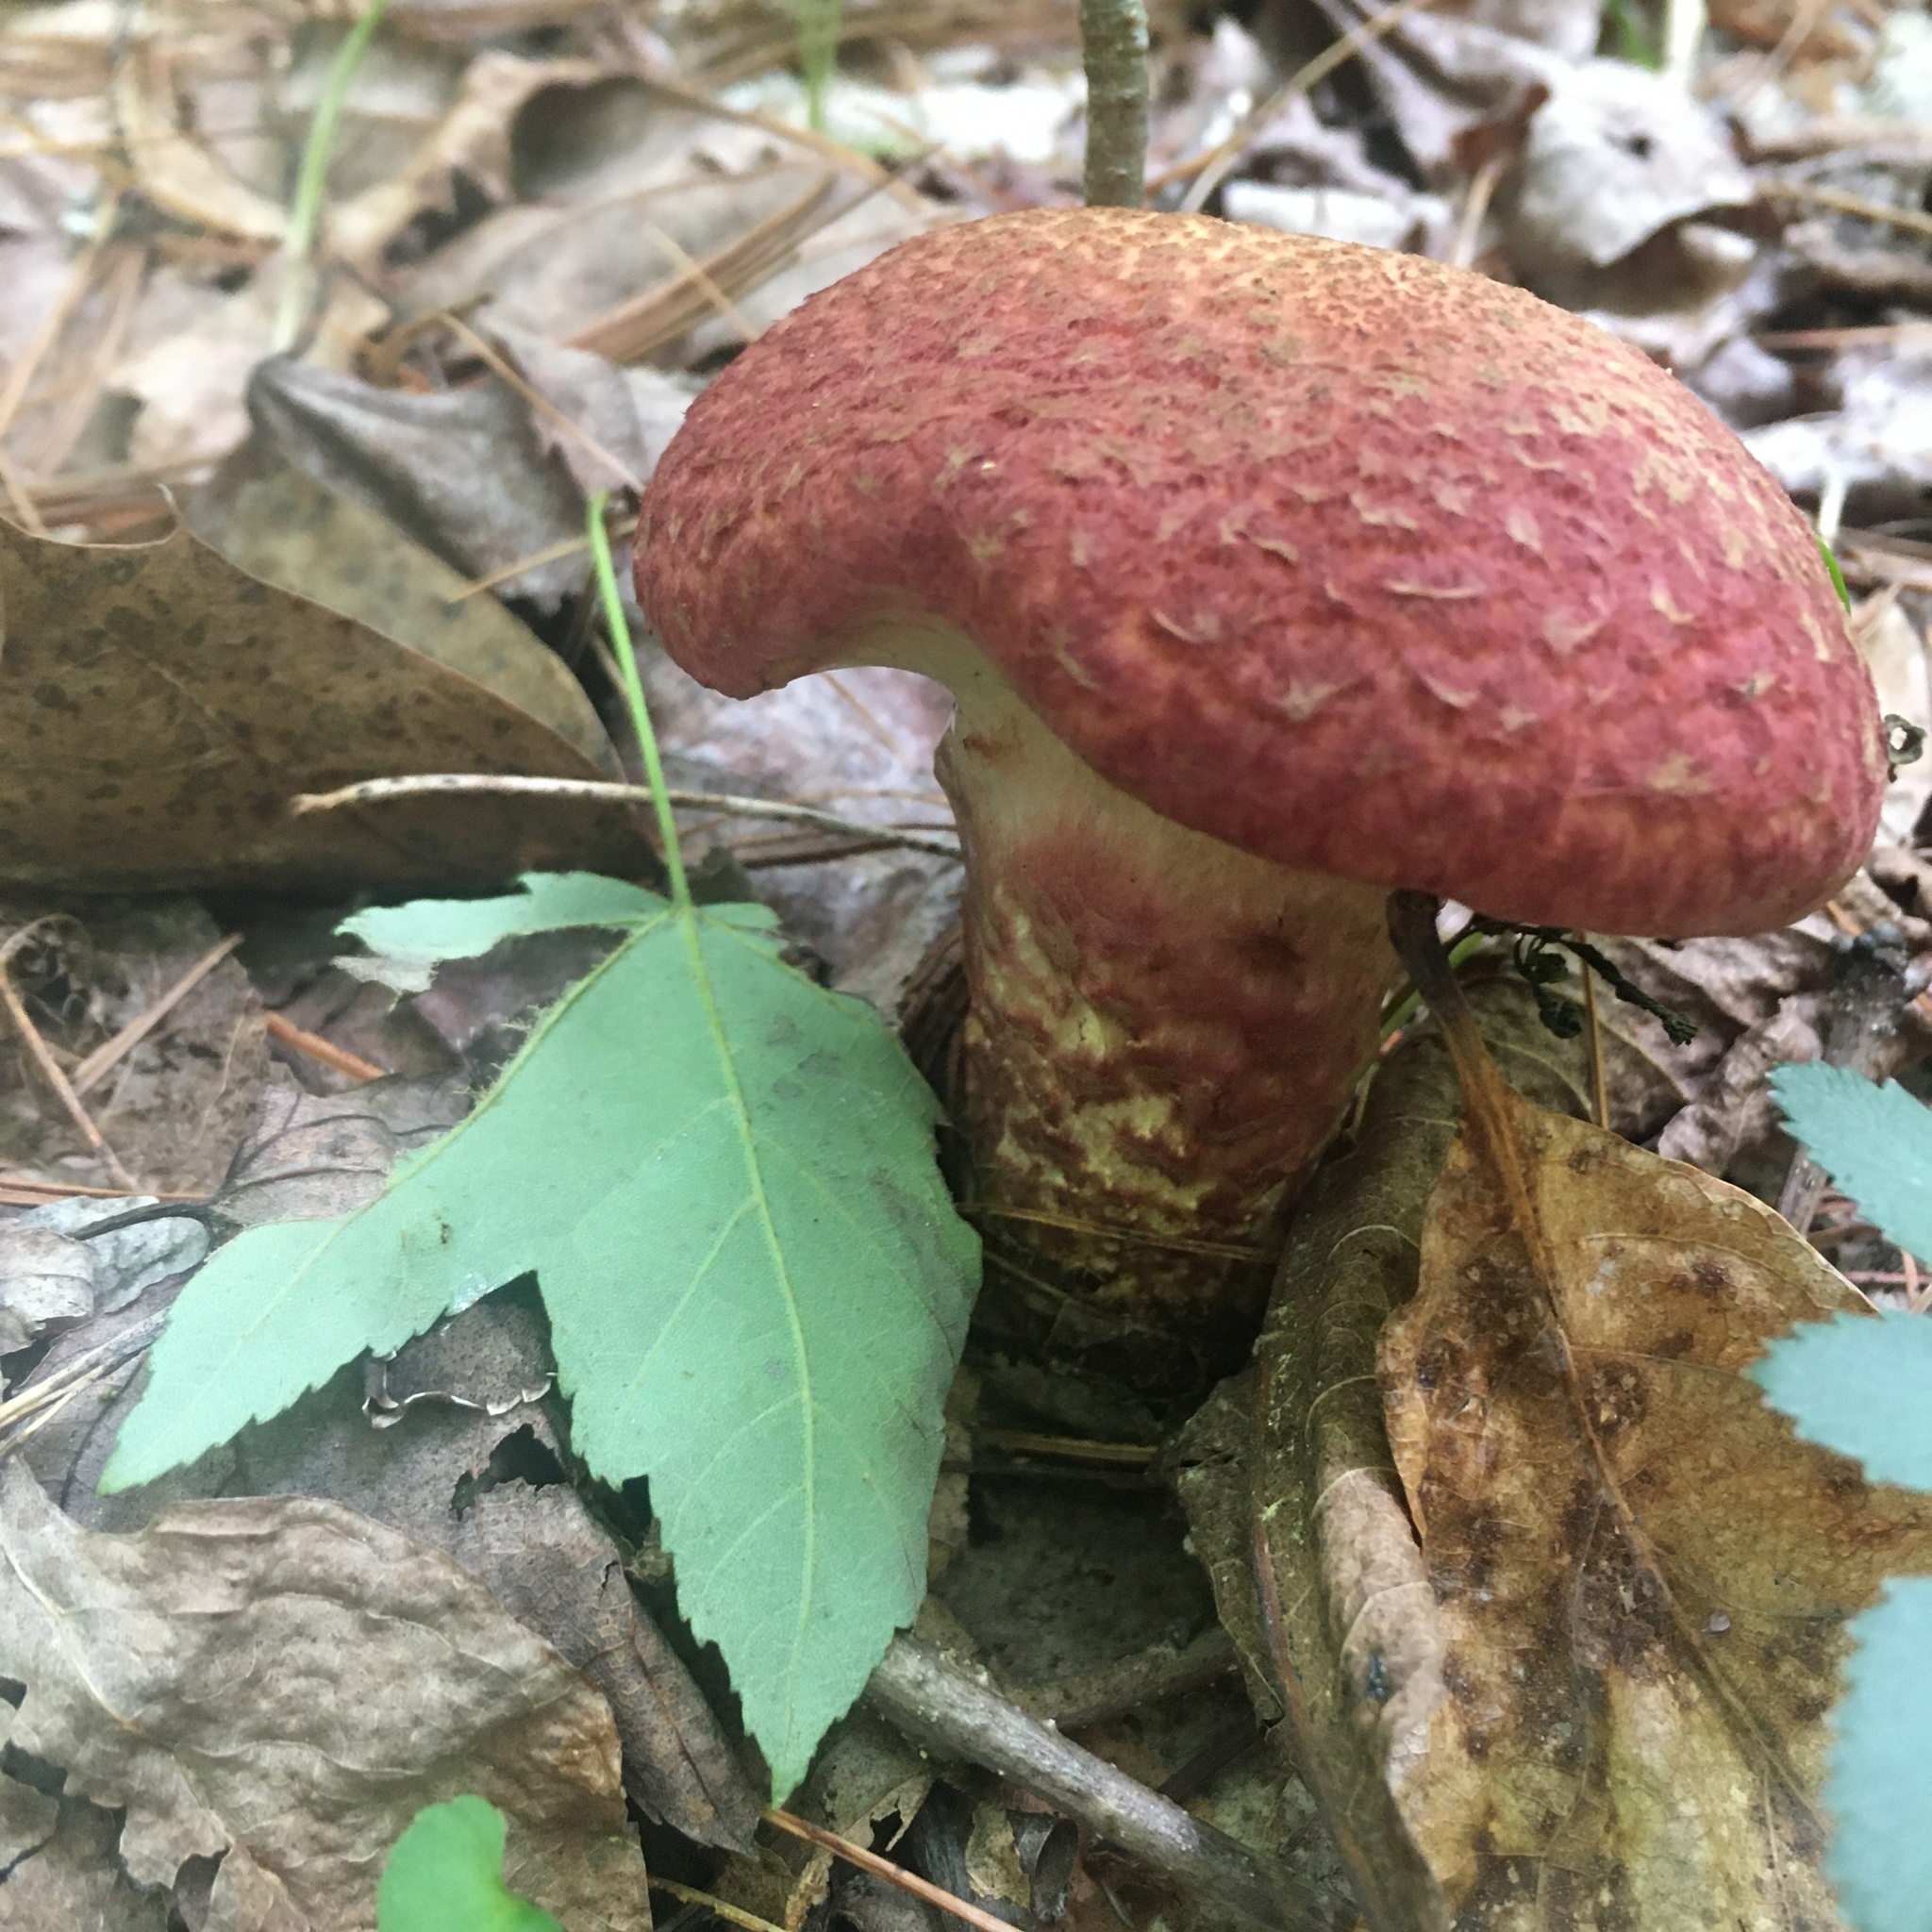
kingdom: Fungi
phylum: Basidiomycota
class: Agaricomycetes
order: Boletales
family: Suillaceae
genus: Suillus
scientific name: Suillus spraguei
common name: Painted suillus
